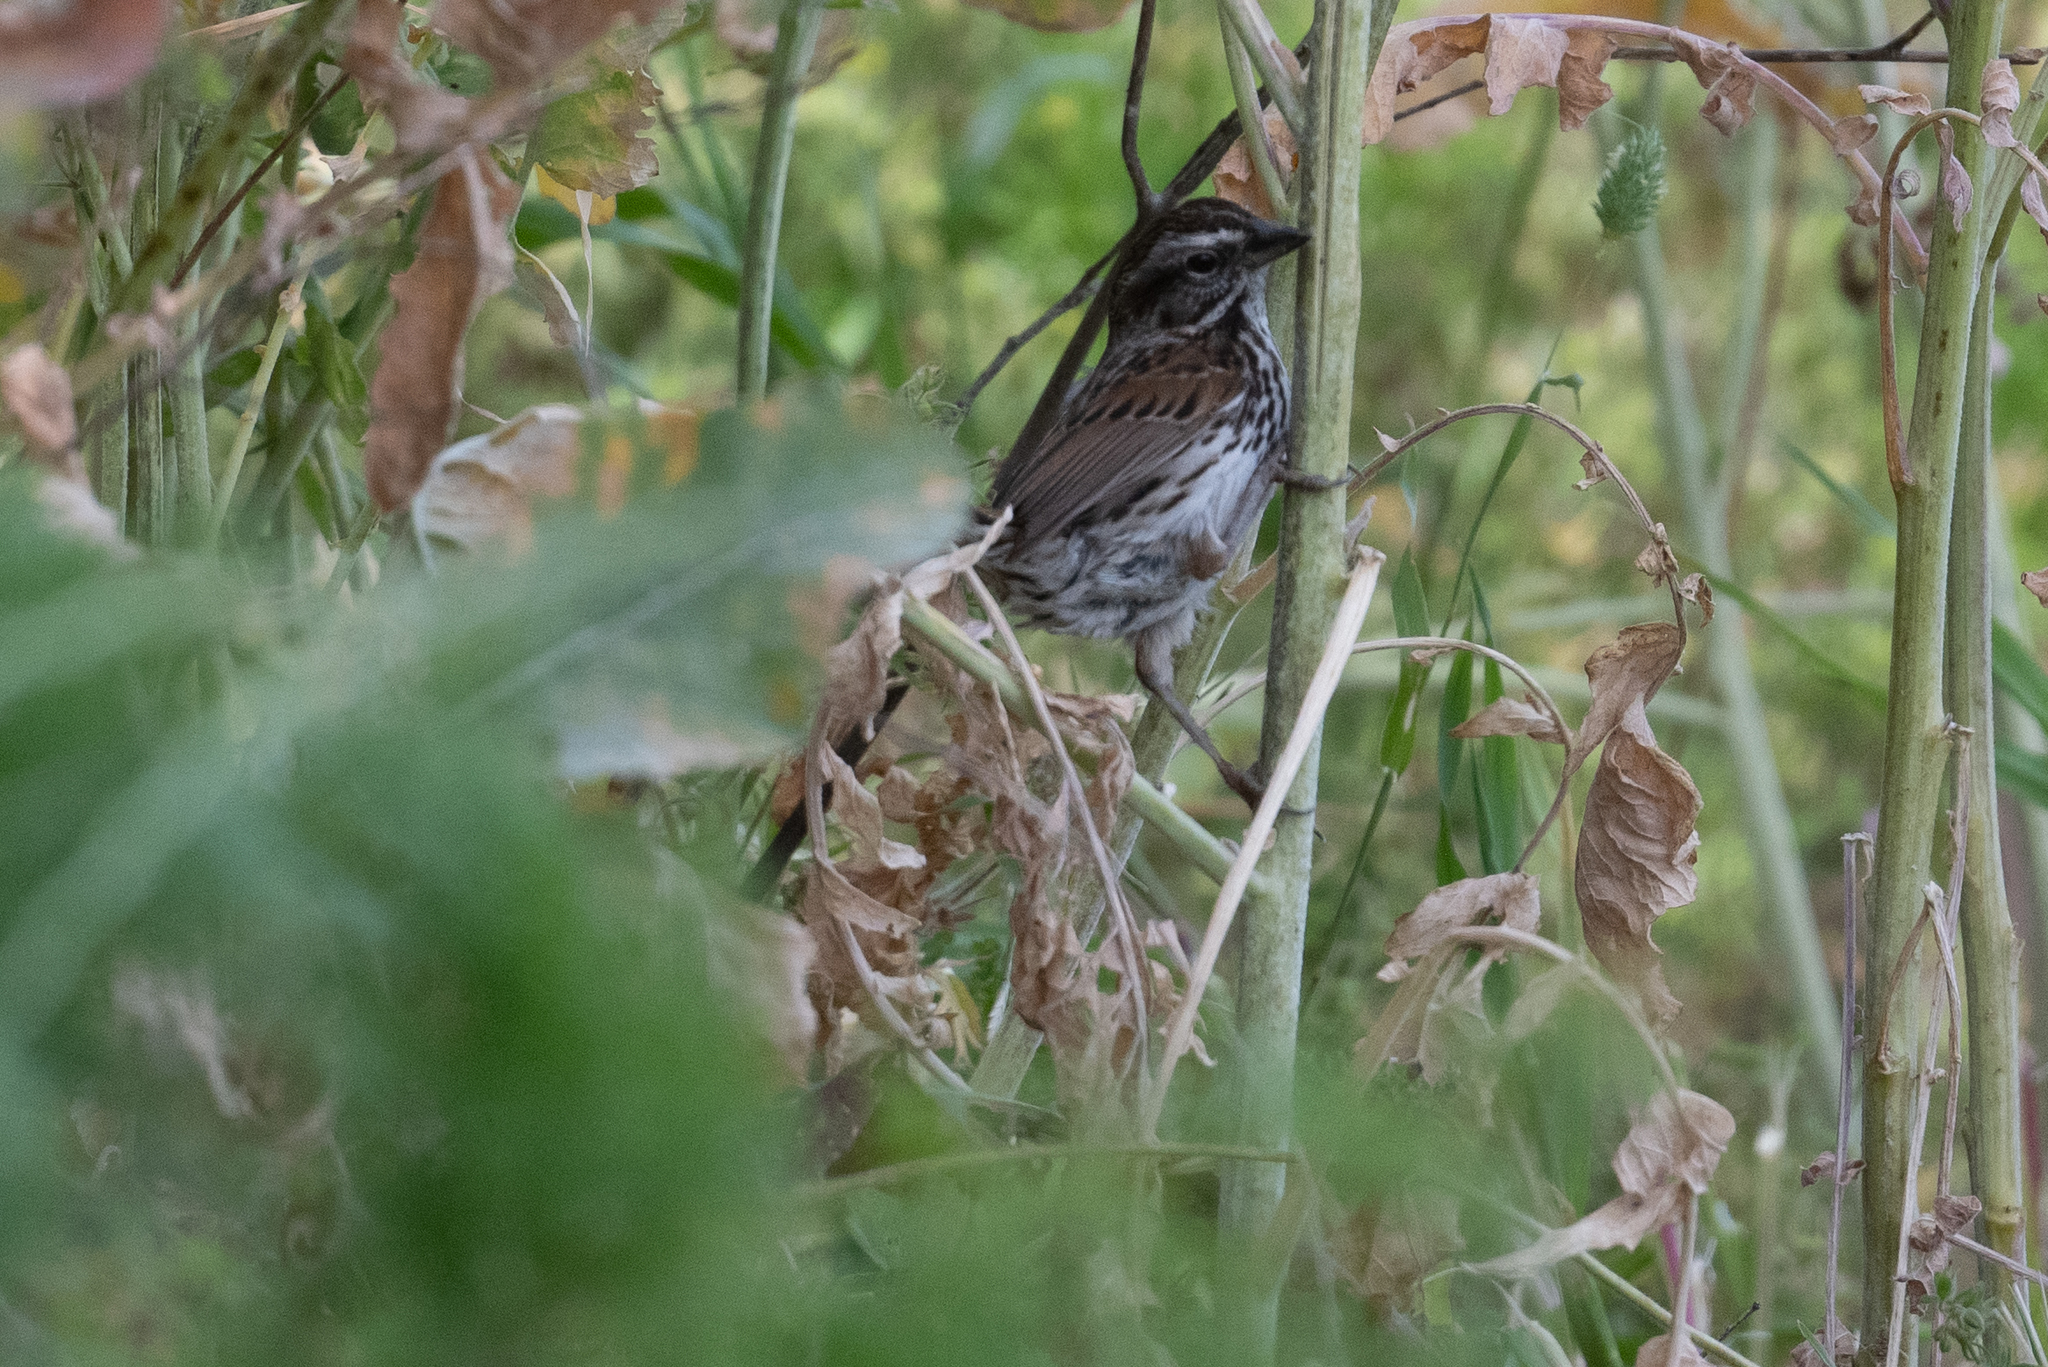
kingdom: Animalia
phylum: Chordata
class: Aves
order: Passeriformes
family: Passerellidae
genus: Melospiza
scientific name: Melospiza melodia
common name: Song sparrow
